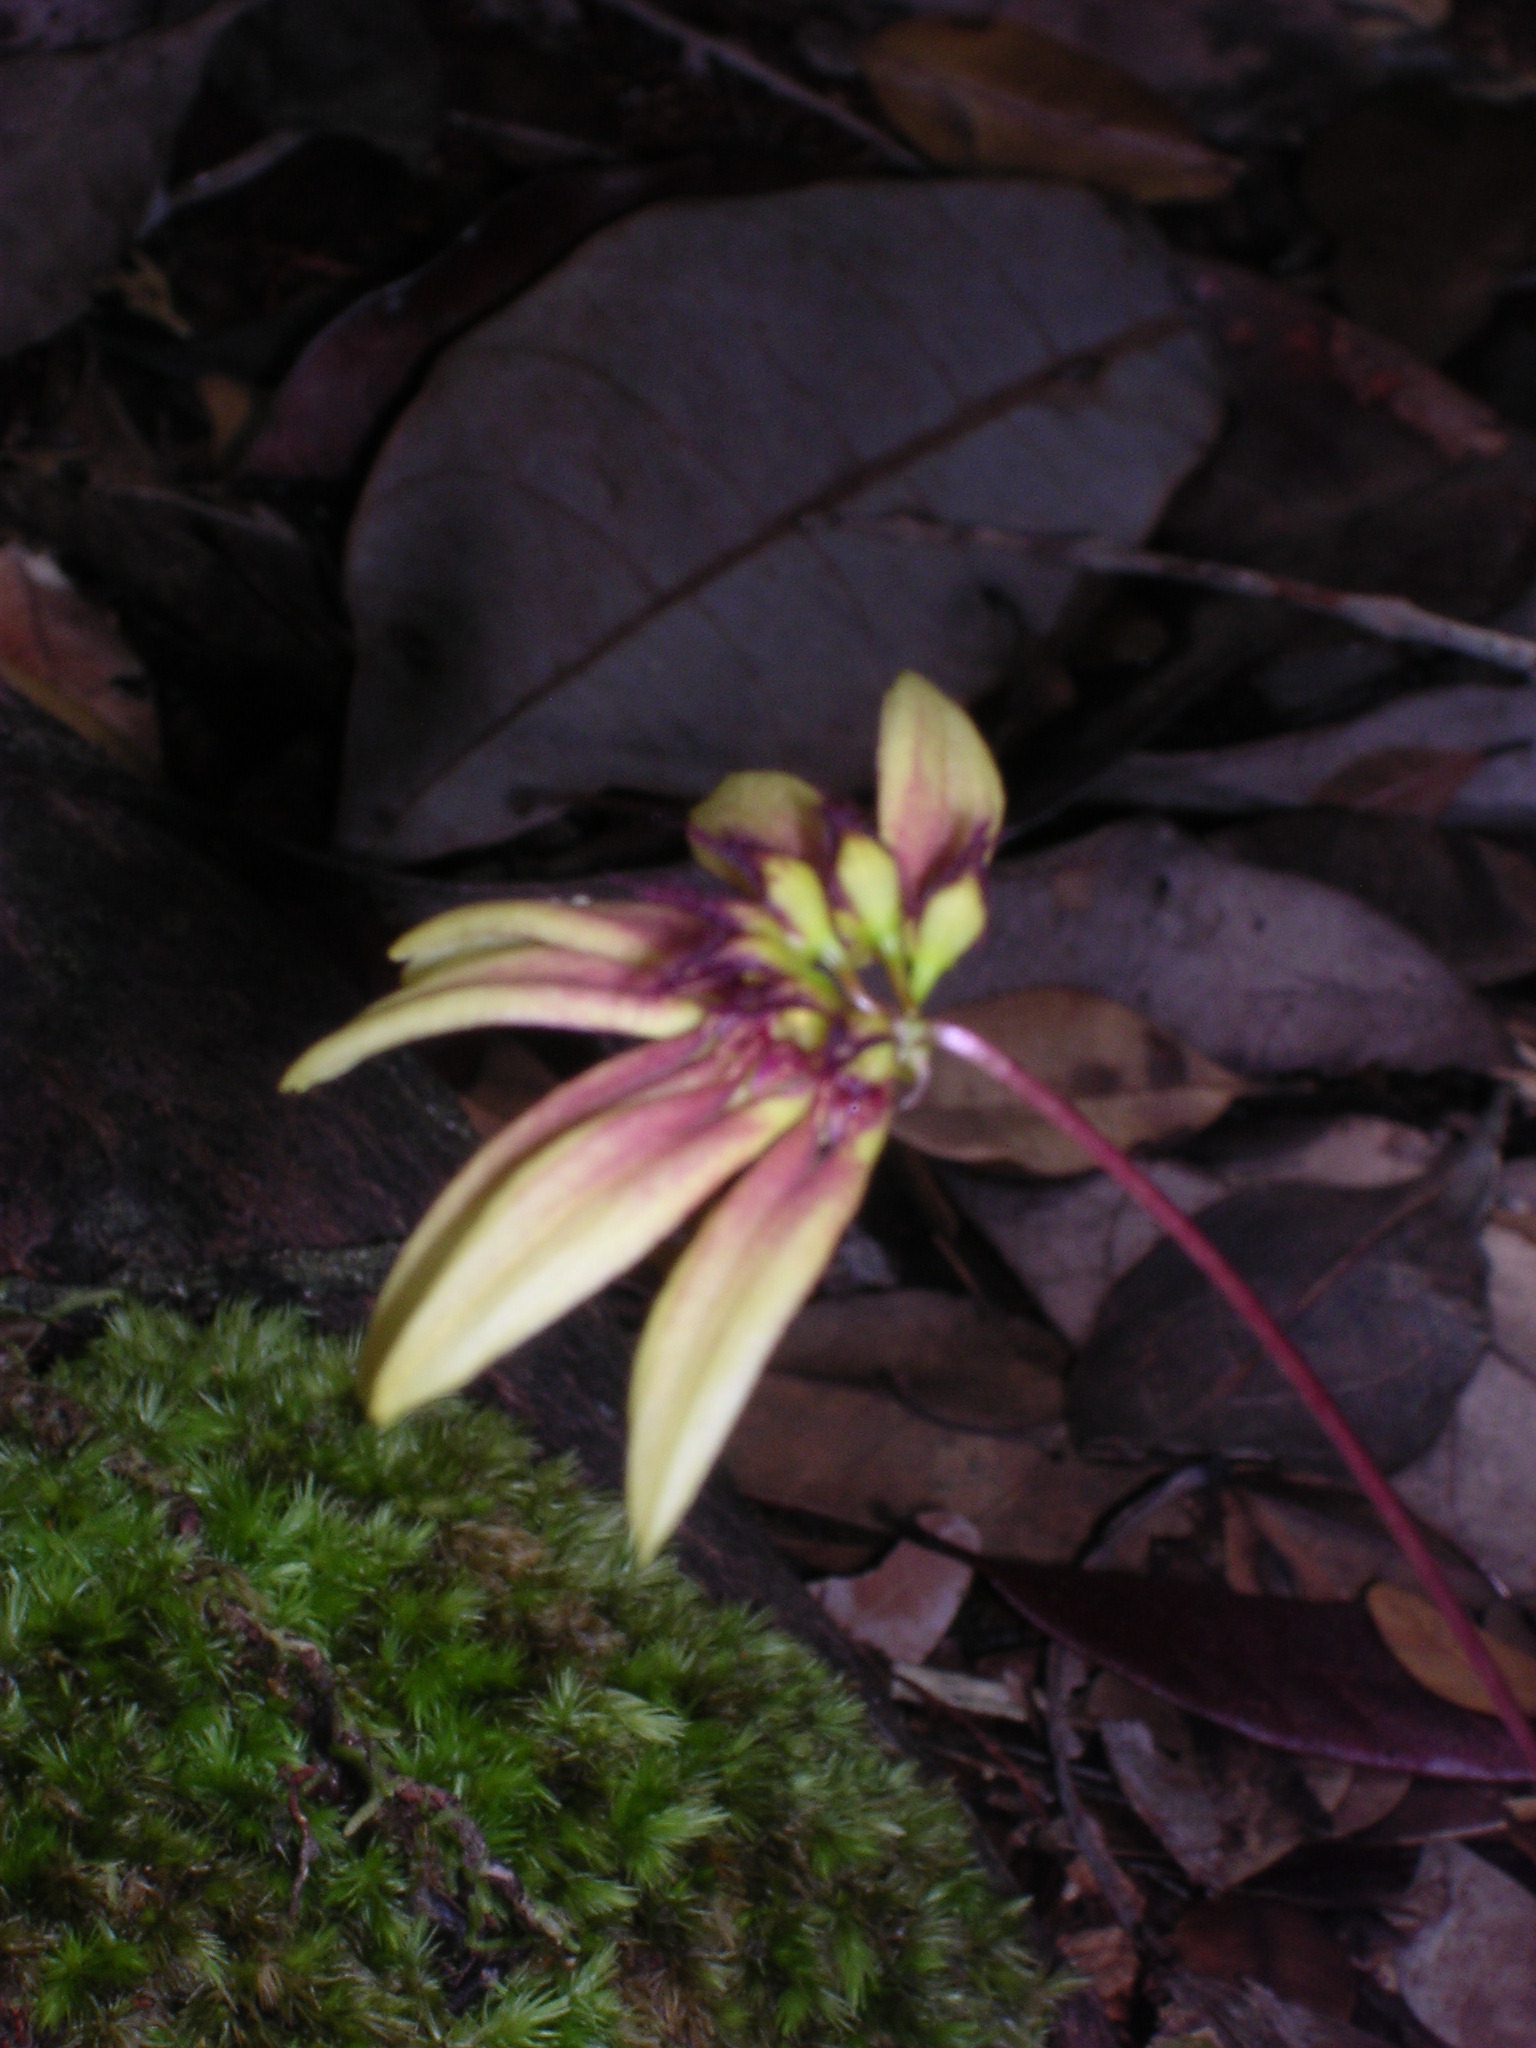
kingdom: Plantae
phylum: Tracheophyta
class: Liliopsida
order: Asparagales
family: Orchidaceae
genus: Bulbophyllum
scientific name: Bulbophyllum acuminatum
